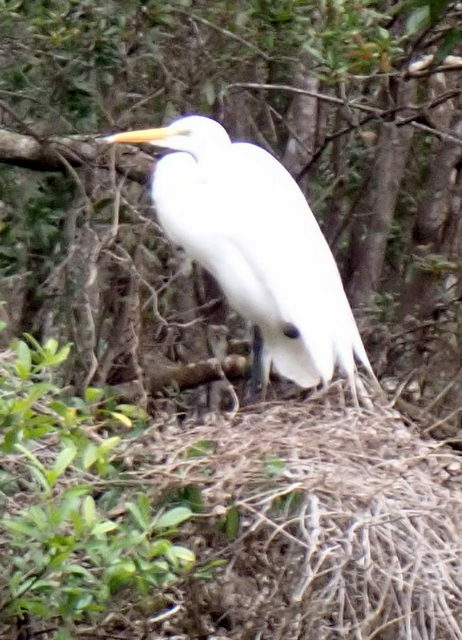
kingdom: Animalia
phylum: Chordata
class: Aves
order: Pelecaniformes
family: Ardeidae
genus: Ardea
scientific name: Ardea alba
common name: Great egret
